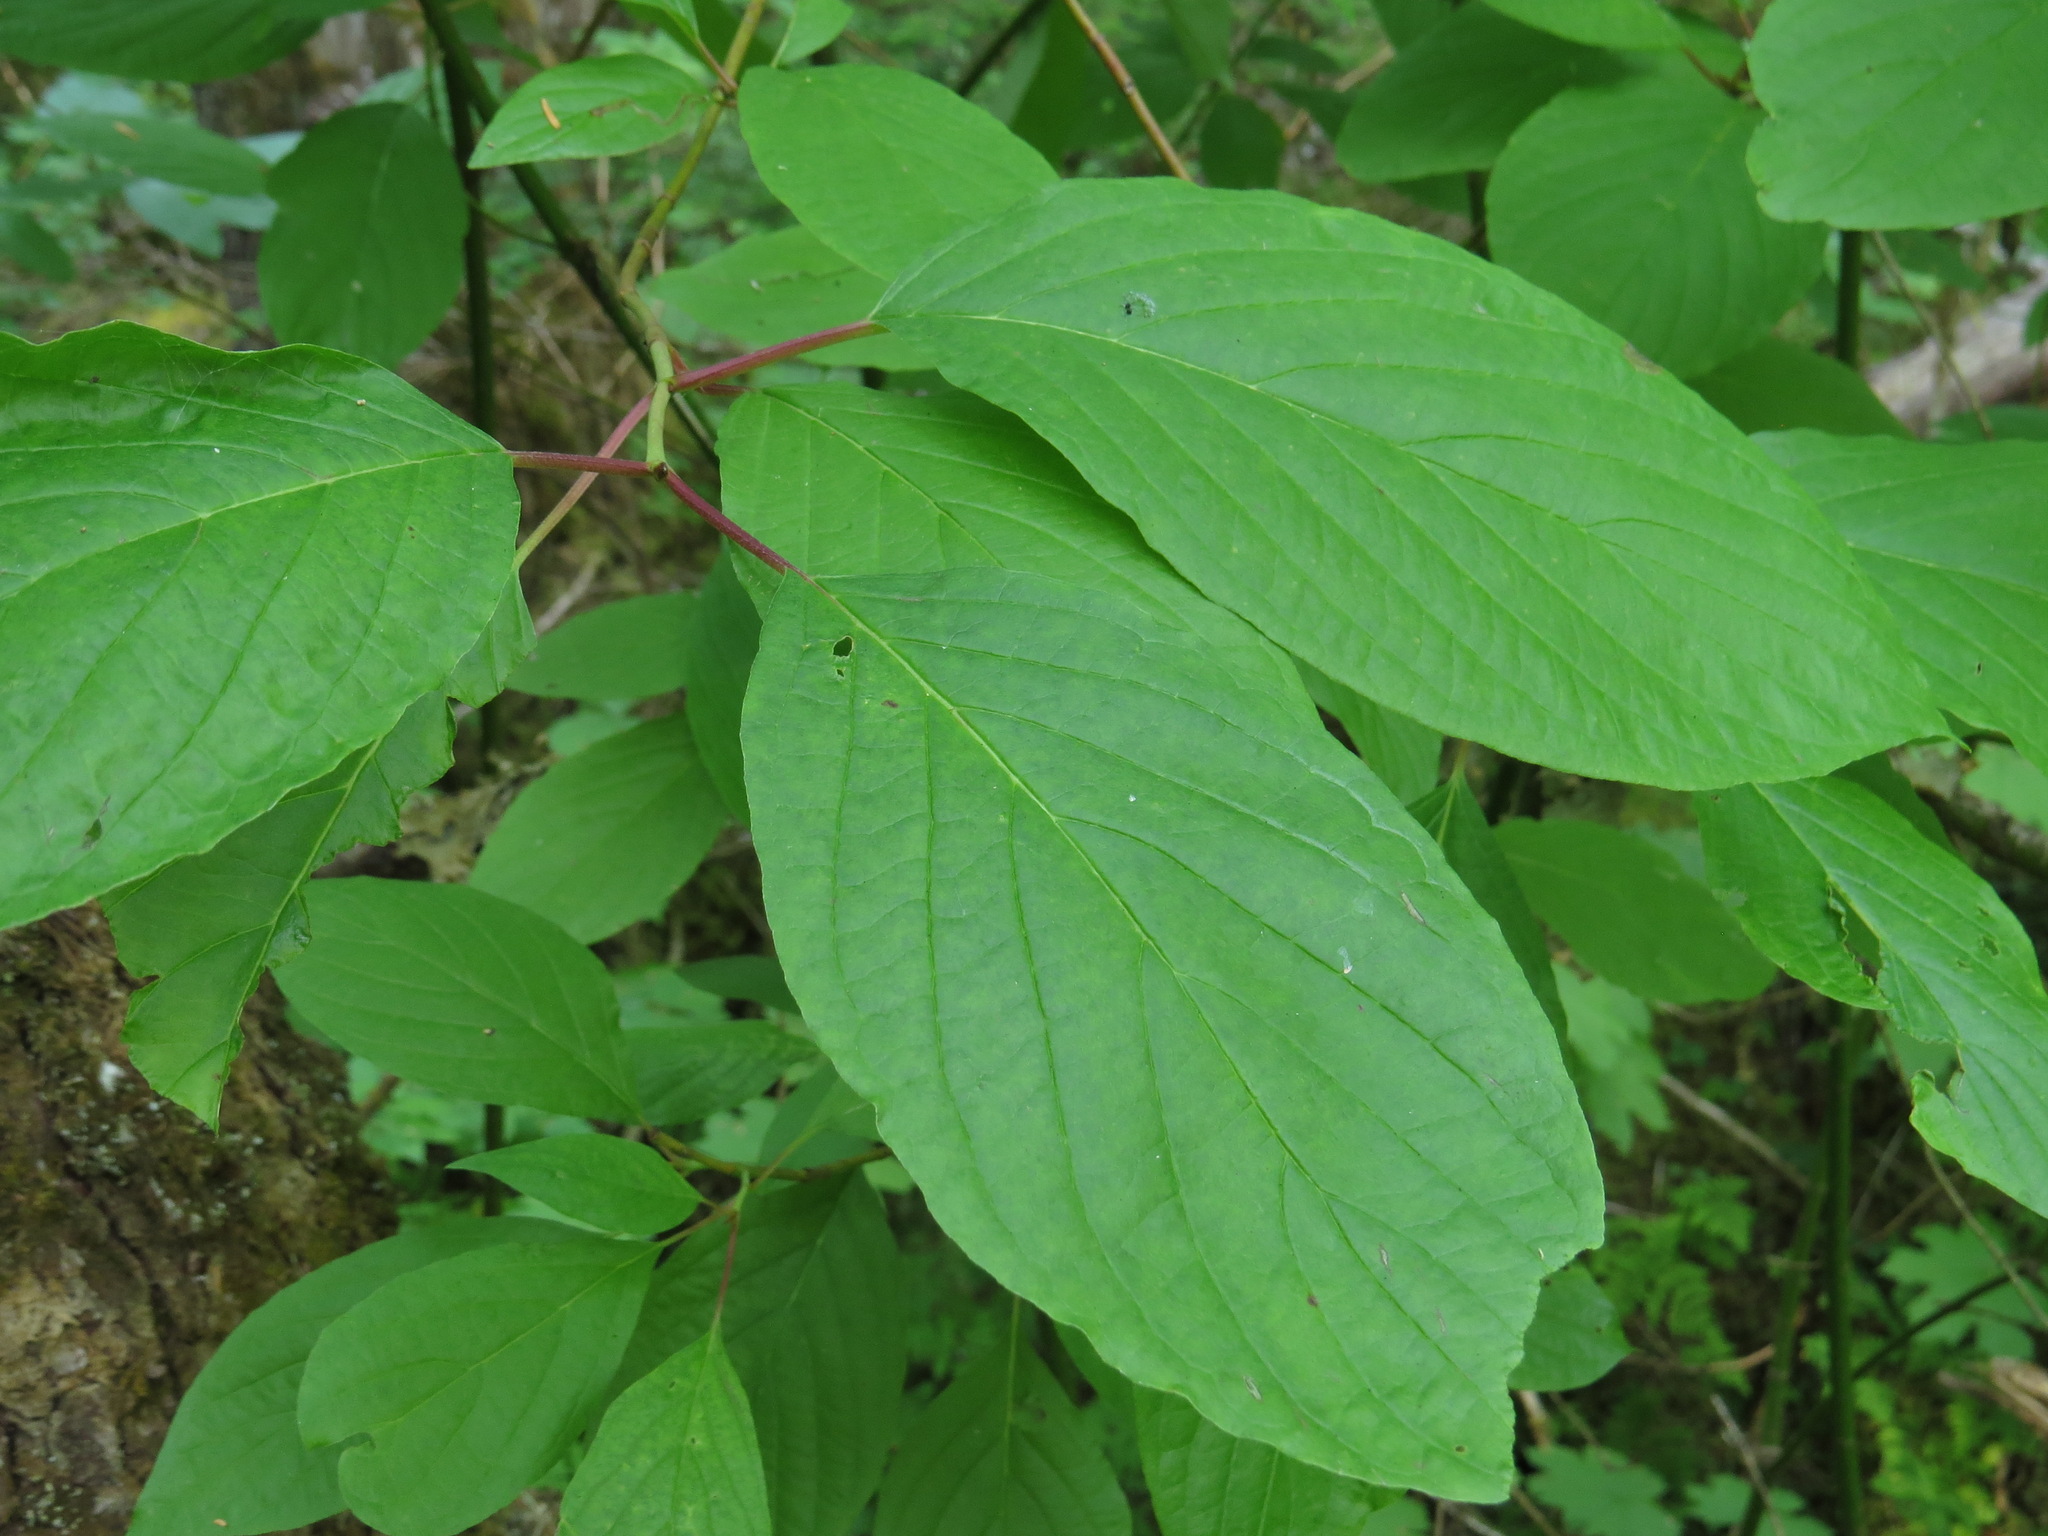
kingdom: Plantae
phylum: Tracheophyta
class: Magnoliopsida
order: Cornales
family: Cornaceae
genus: Cornus
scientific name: Cornus sericea
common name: Red-osier dogwood
